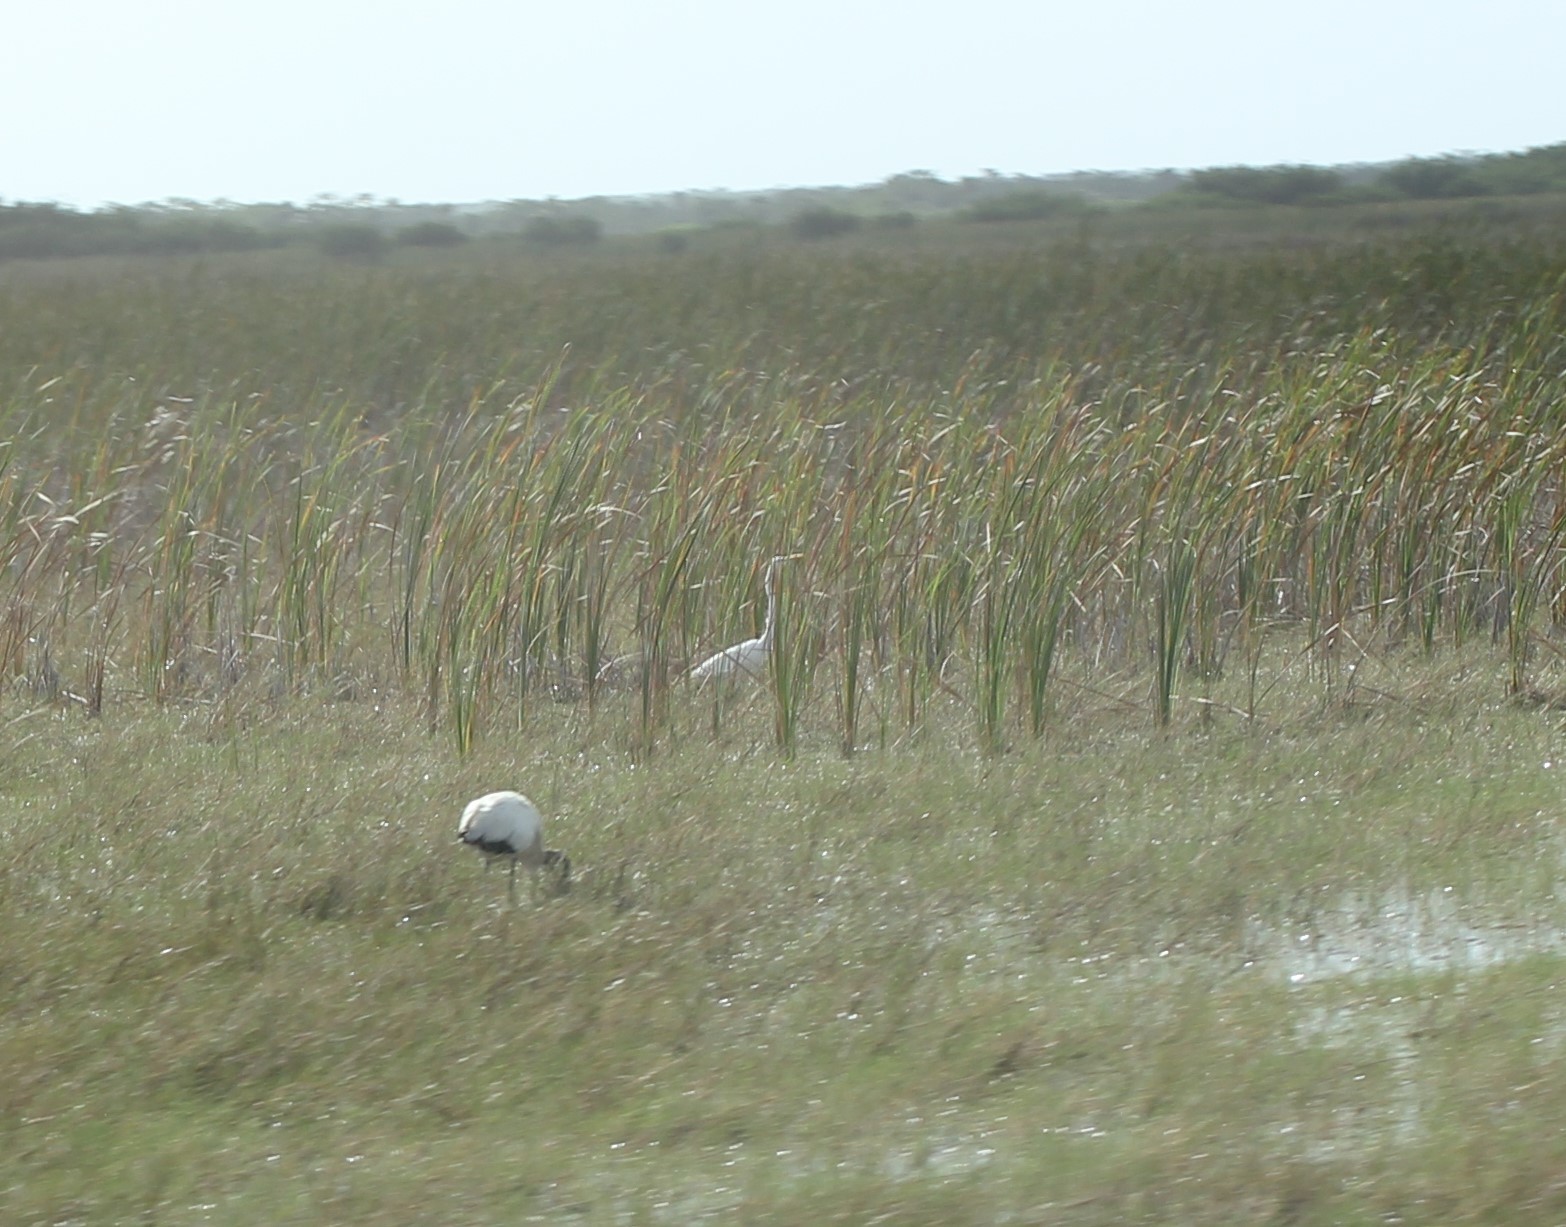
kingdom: Animalia
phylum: Chordata
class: Aves
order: Pelecaniformes
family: Ardeidae
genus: Ardea
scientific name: Ardea alba
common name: Great egret
